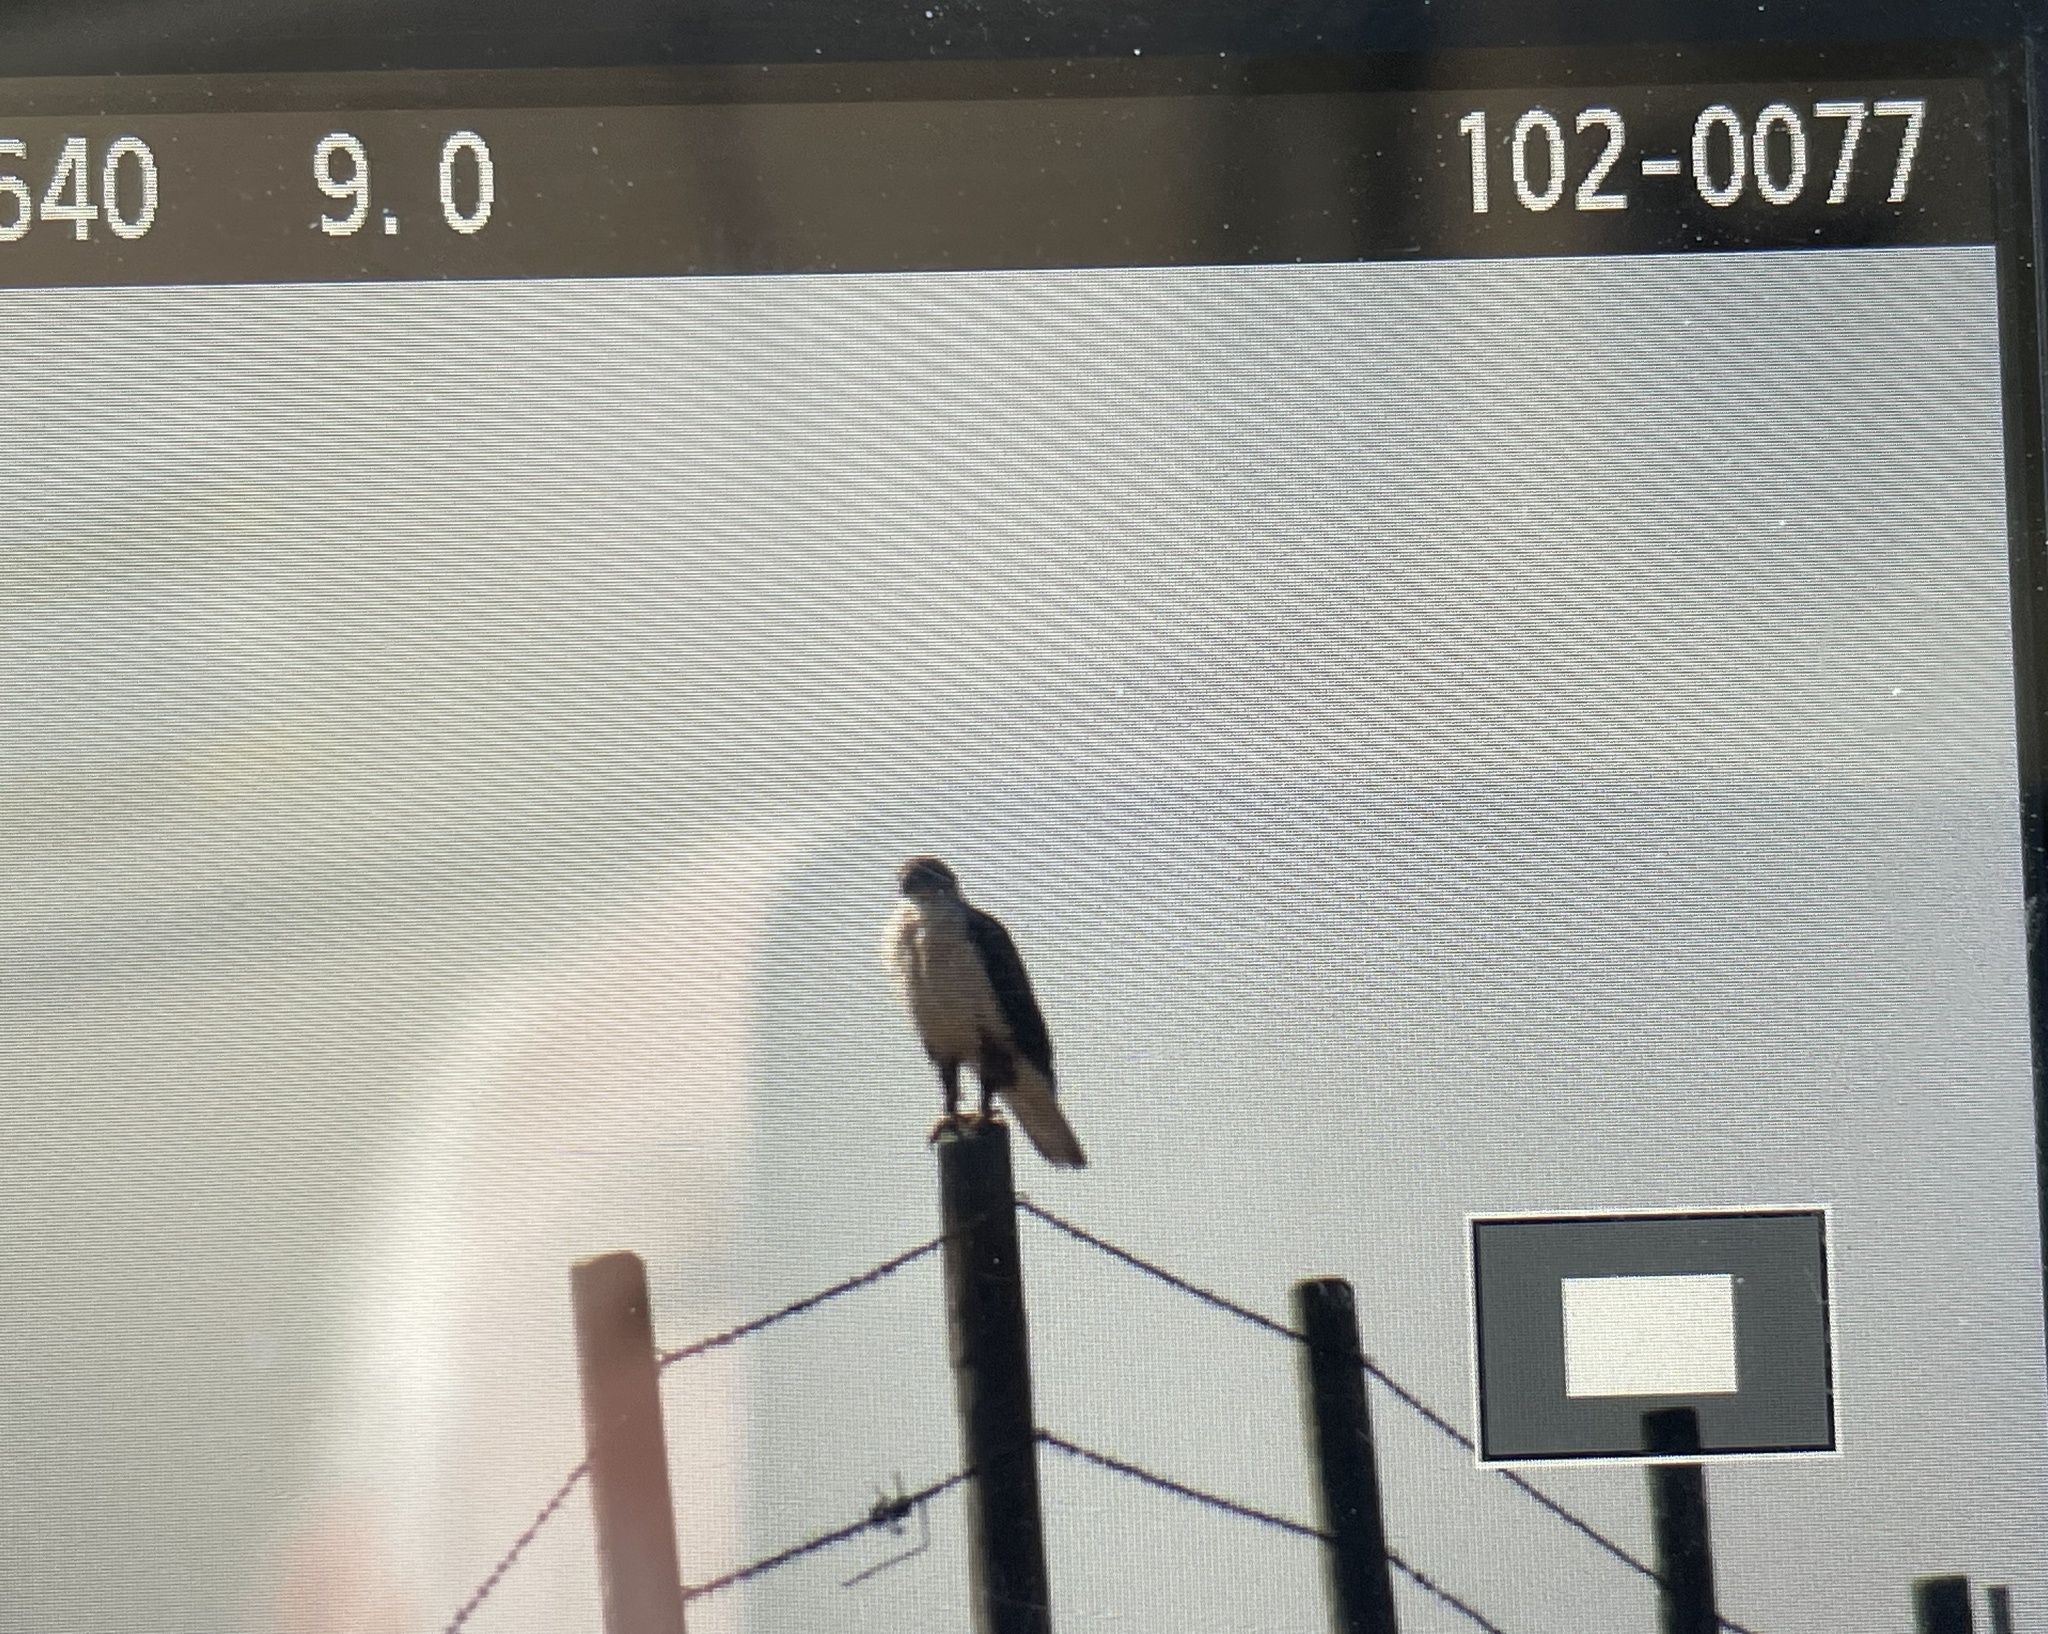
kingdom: Animalia
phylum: Chordata
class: Aves
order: Accipitriformes
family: Accipitridae
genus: Buteo
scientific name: Buteo regalis
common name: Ferruginous hawk
